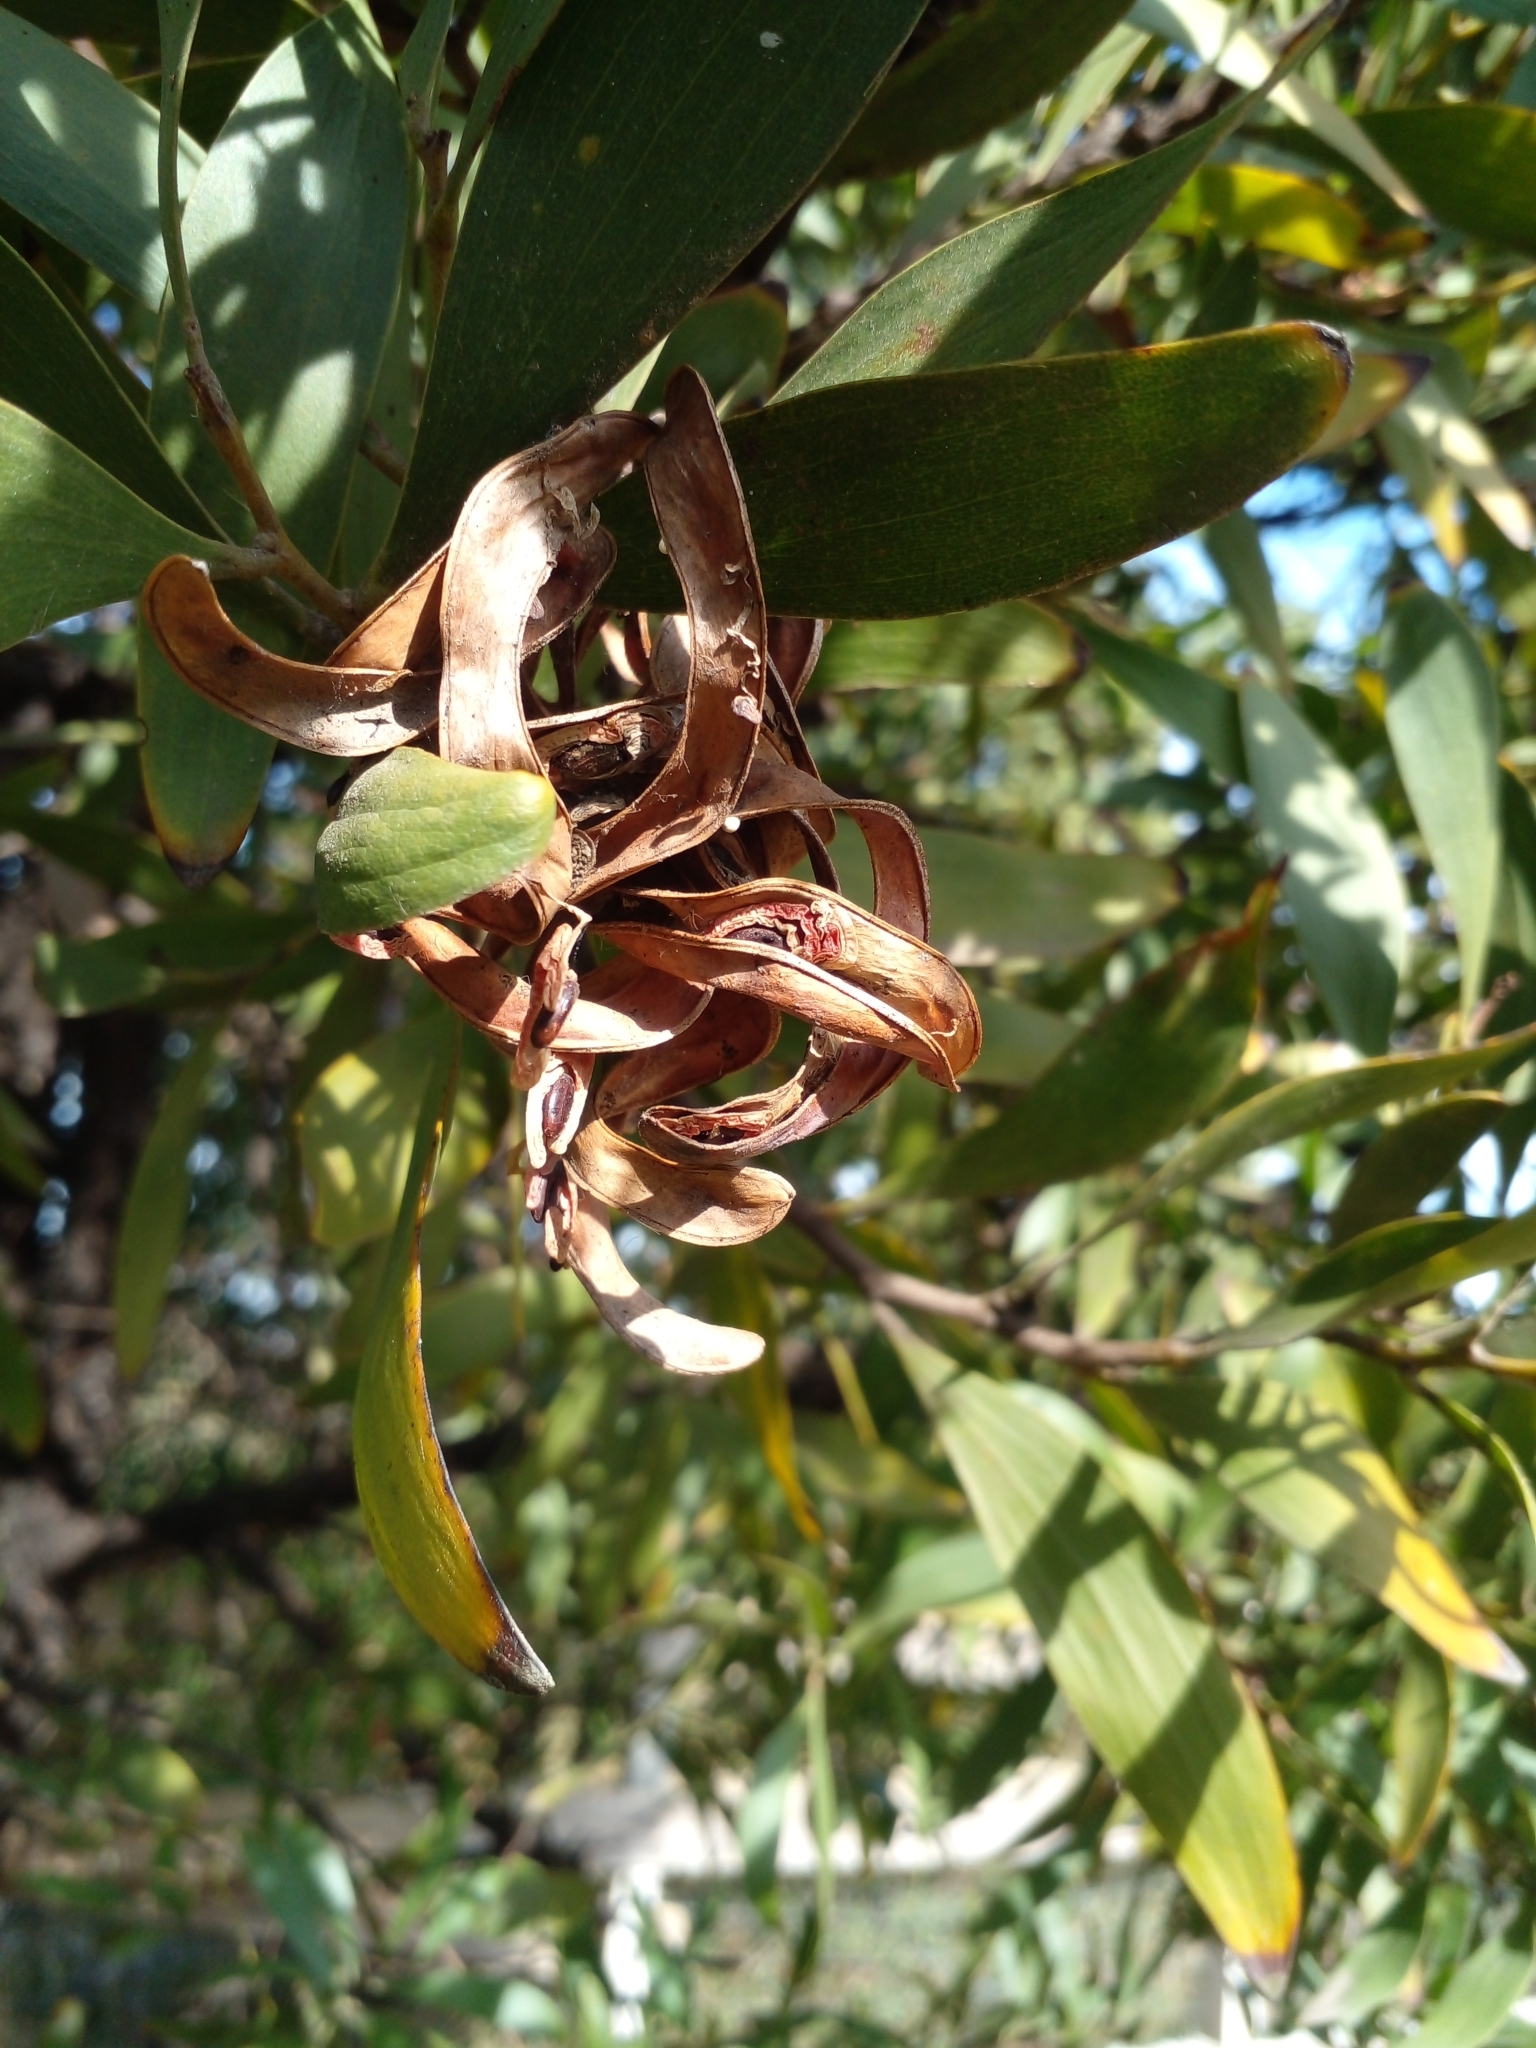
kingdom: Plantae
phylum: Tracheophyta
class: Magnoliopsida
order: Fabales
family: Fabaceae
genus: Acacia
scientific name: Acacia melanoxylon
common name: Blackwood
